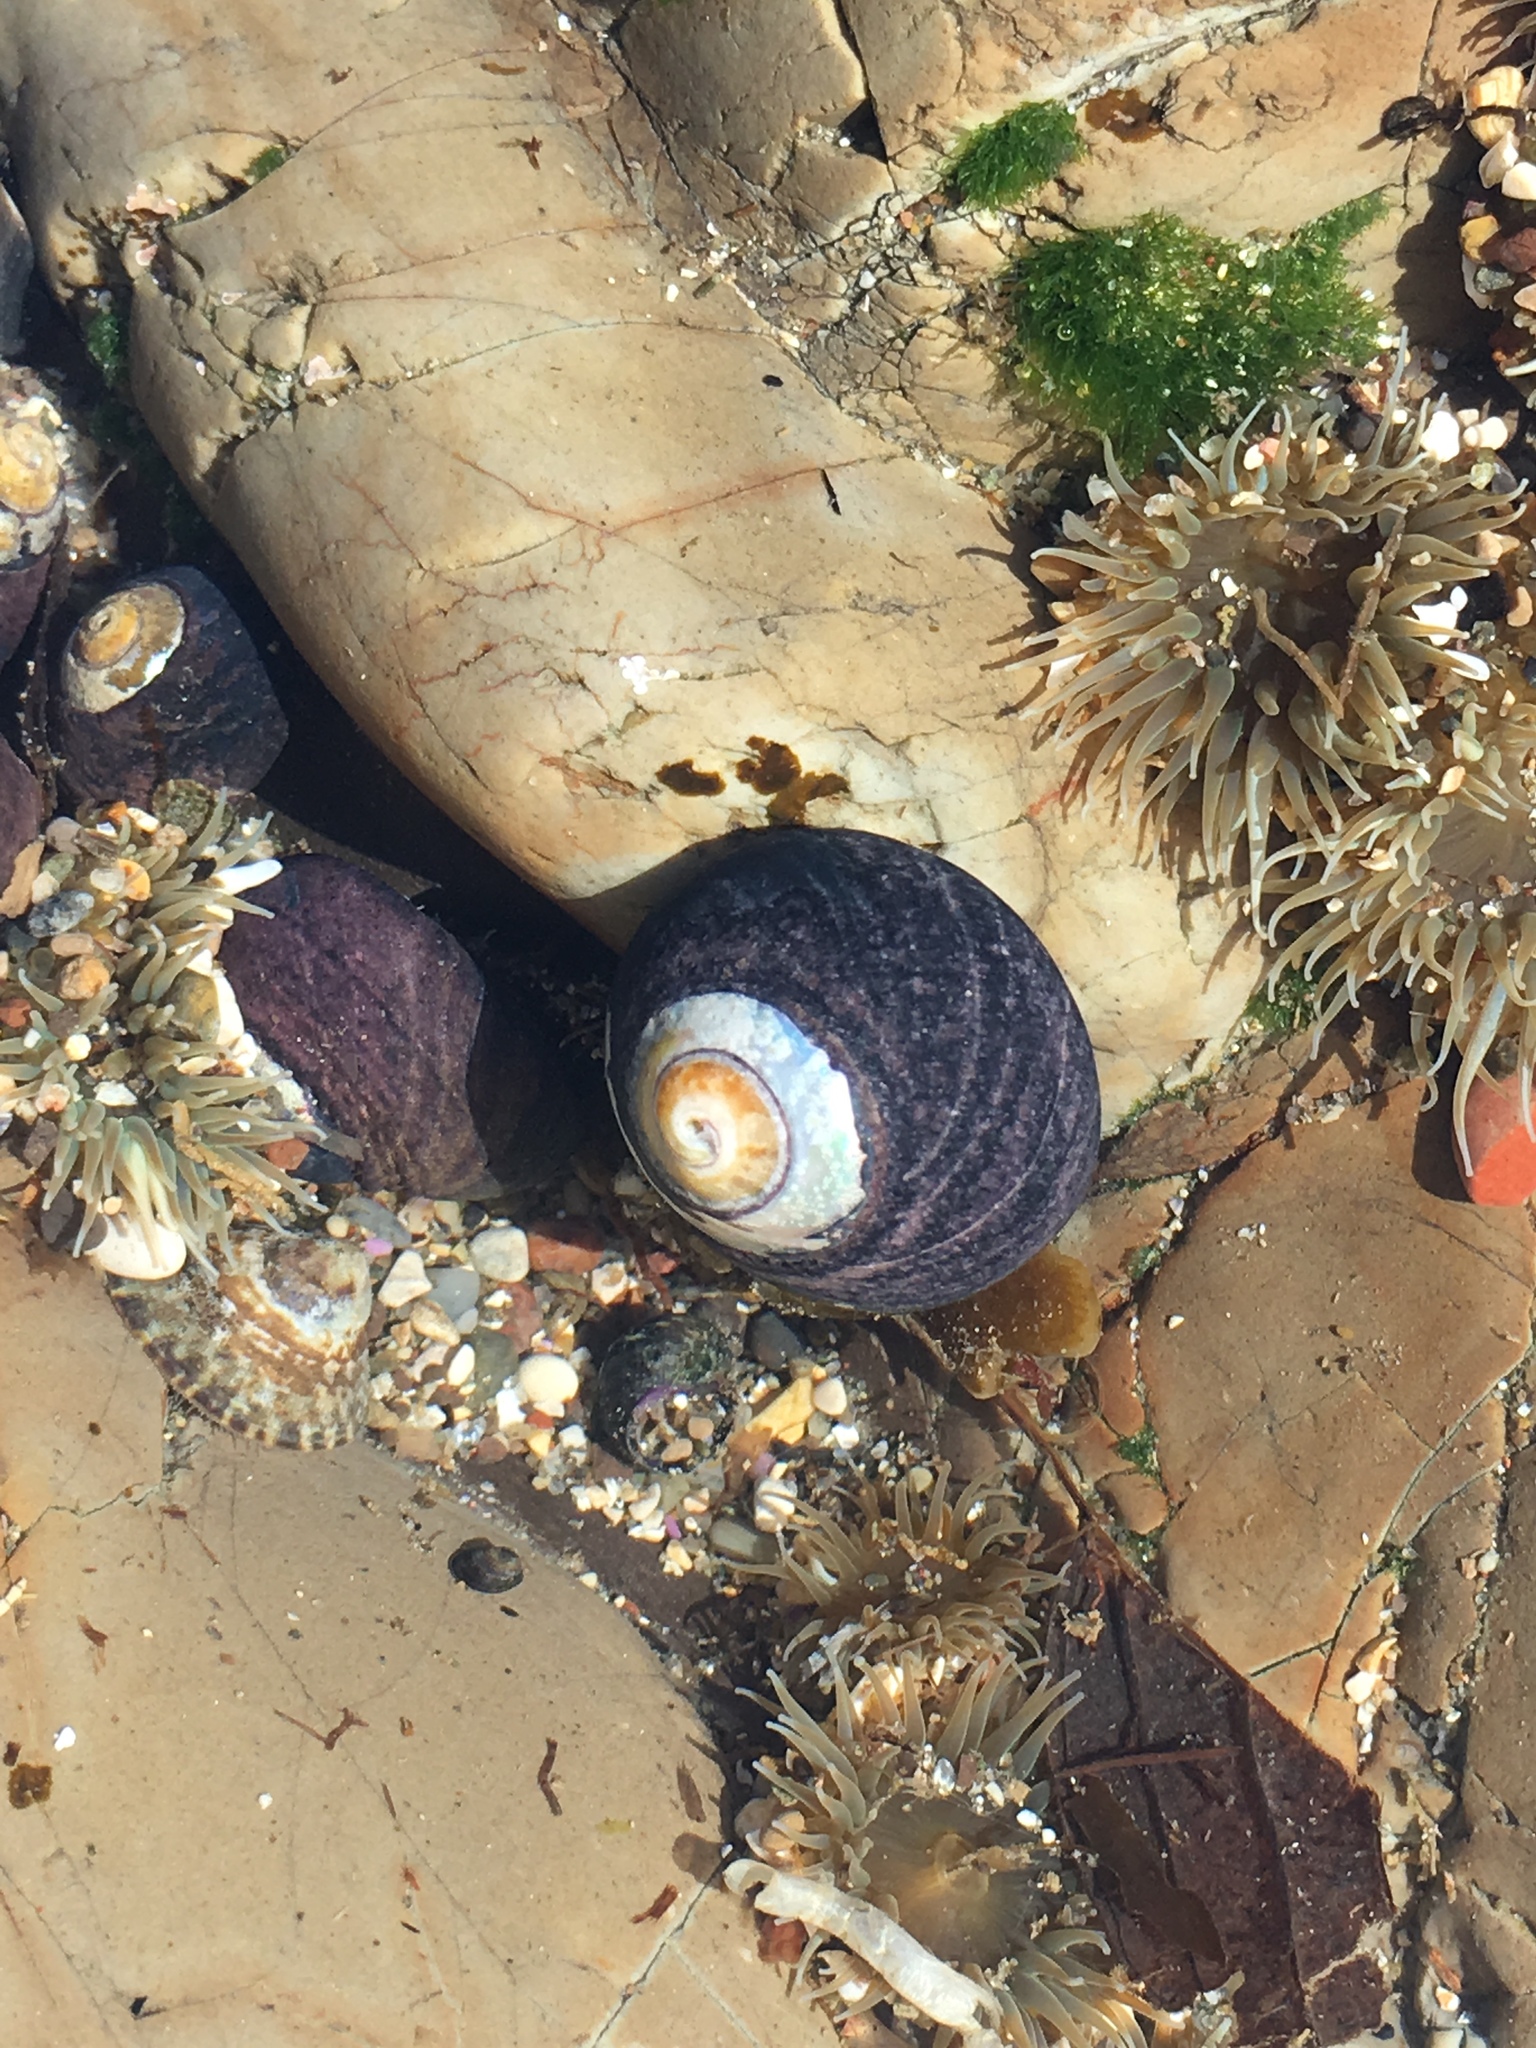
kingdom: Animalia
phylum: Mollusca
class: Gastropoda
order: Trochida
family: Tegulidae
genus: Tegula
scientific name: Tegula funebralis
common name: Black tegula
